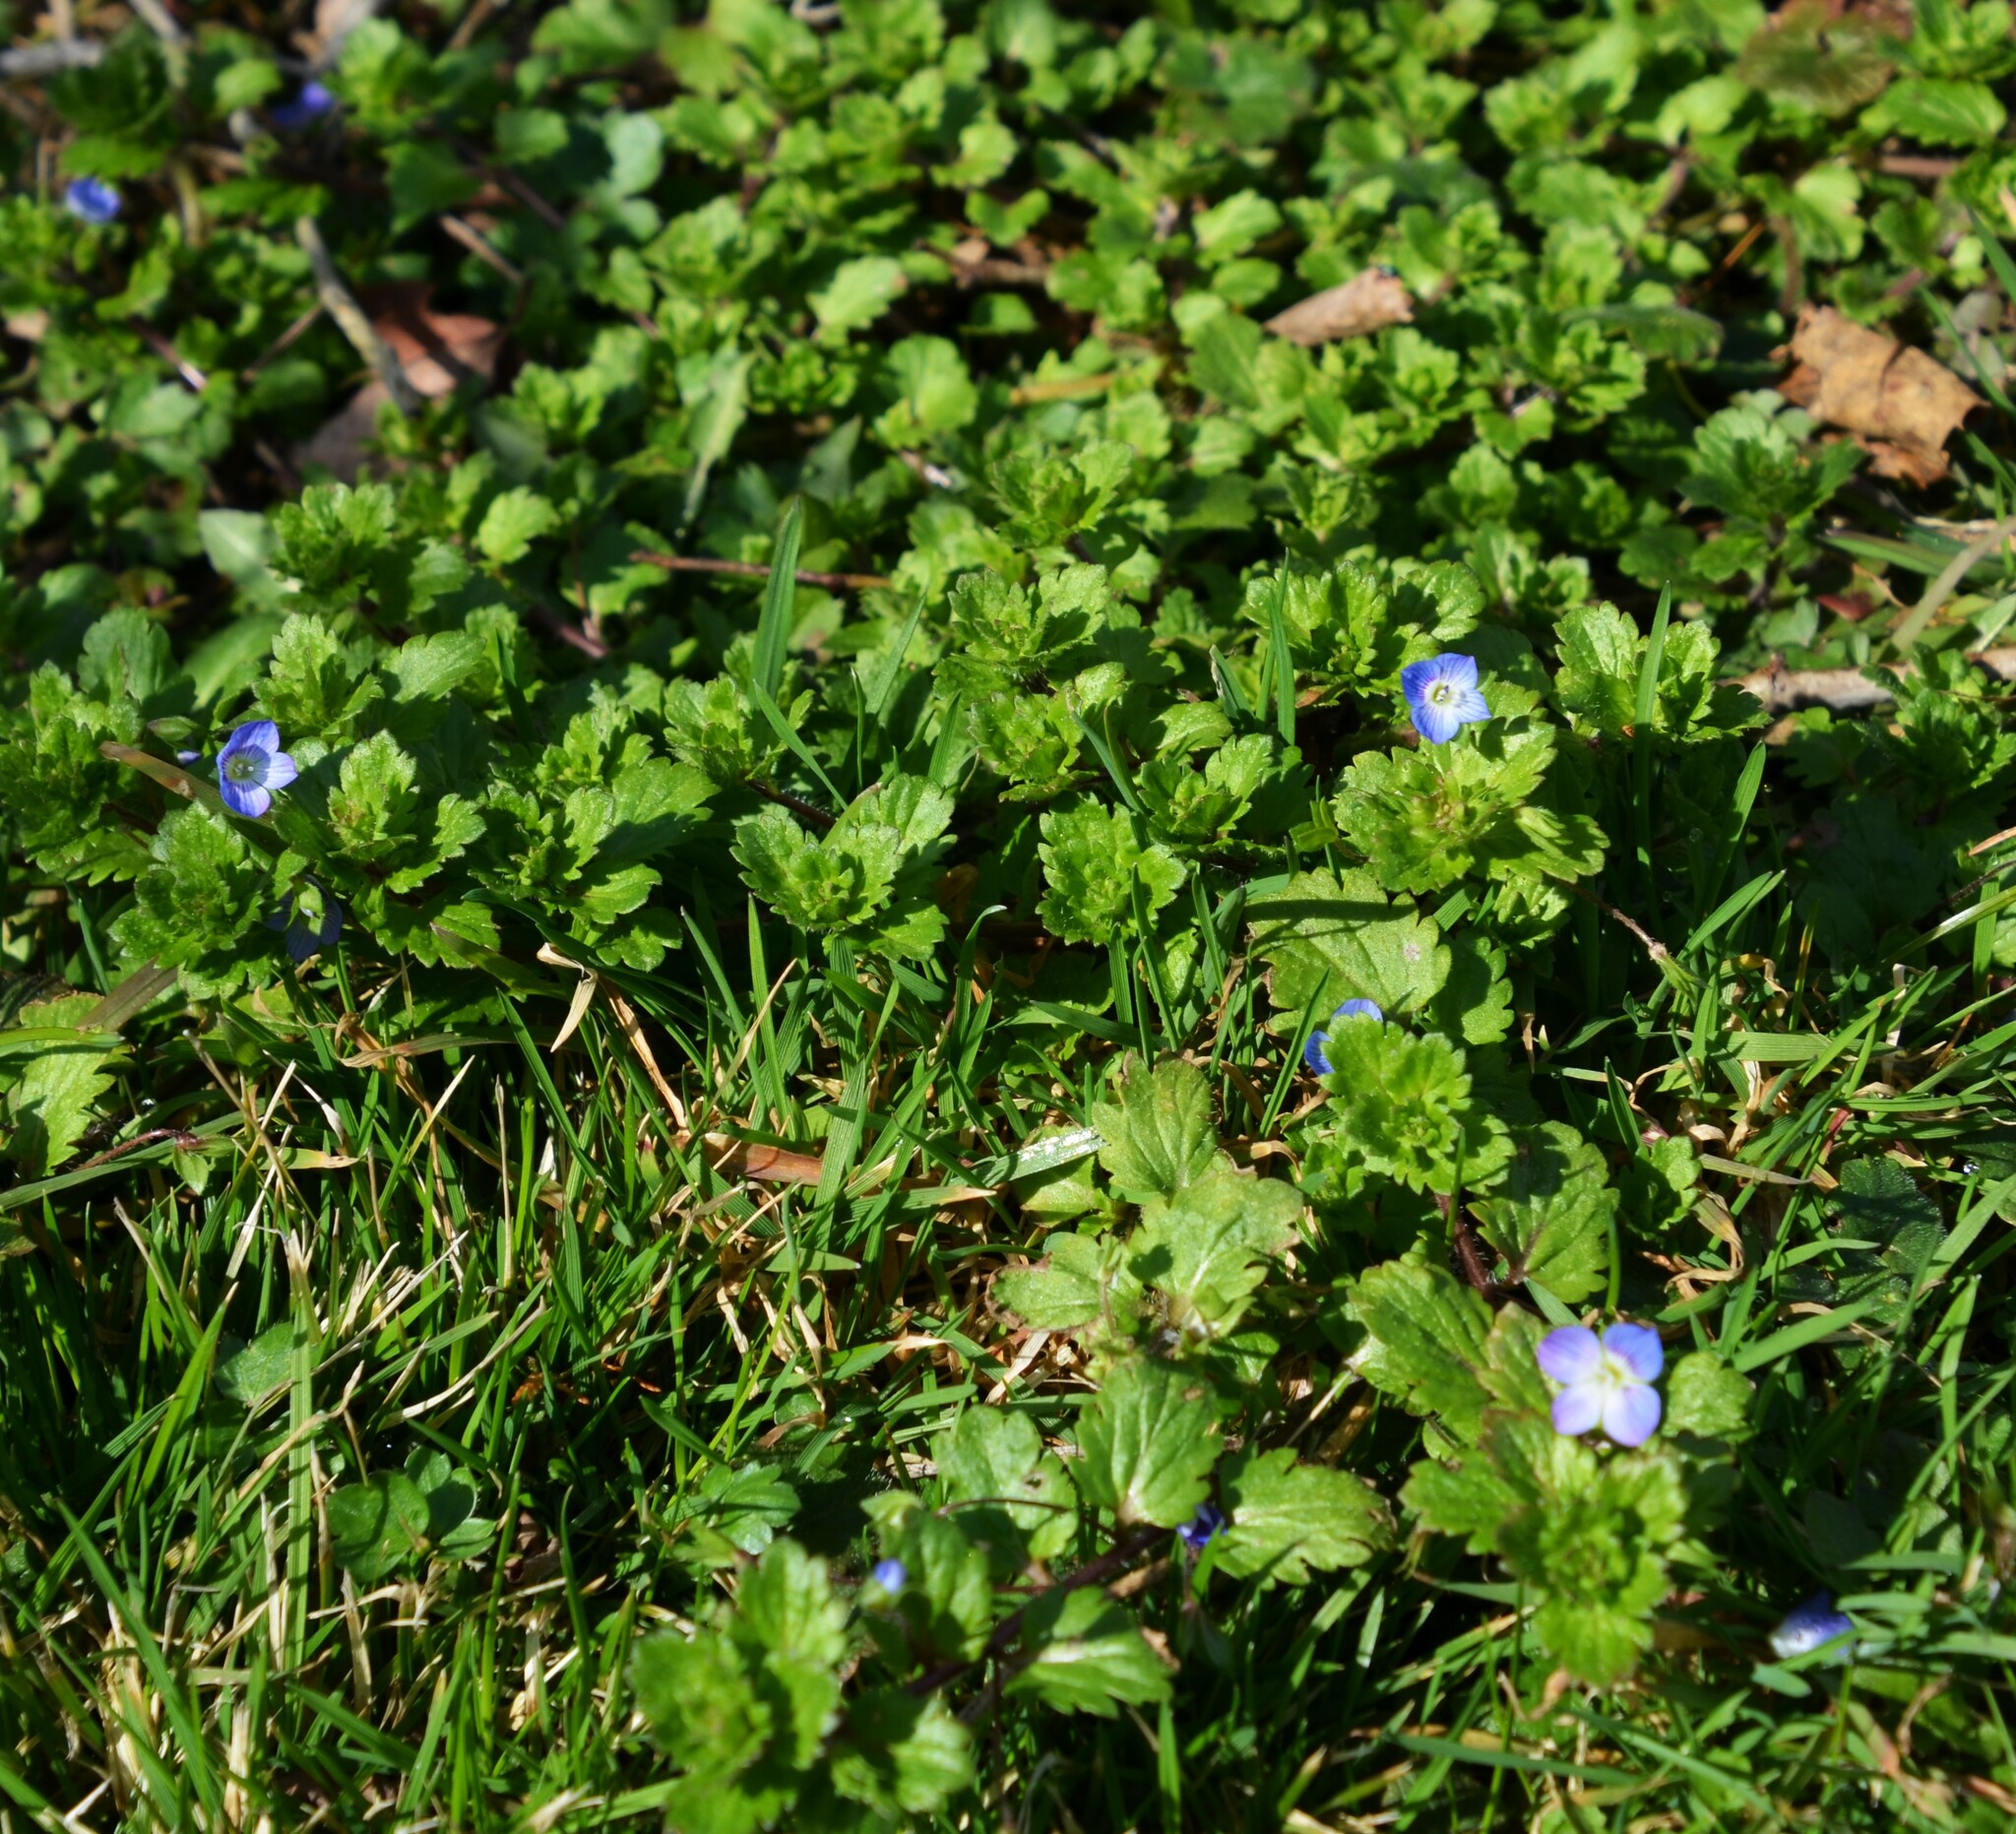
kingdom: Plantae
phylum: Tracheophyta
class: Magnoliopsida
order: Lamiales
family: Plantaginaceae
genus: Veronica
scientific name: Veronica persica
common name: Common field-speedwell
